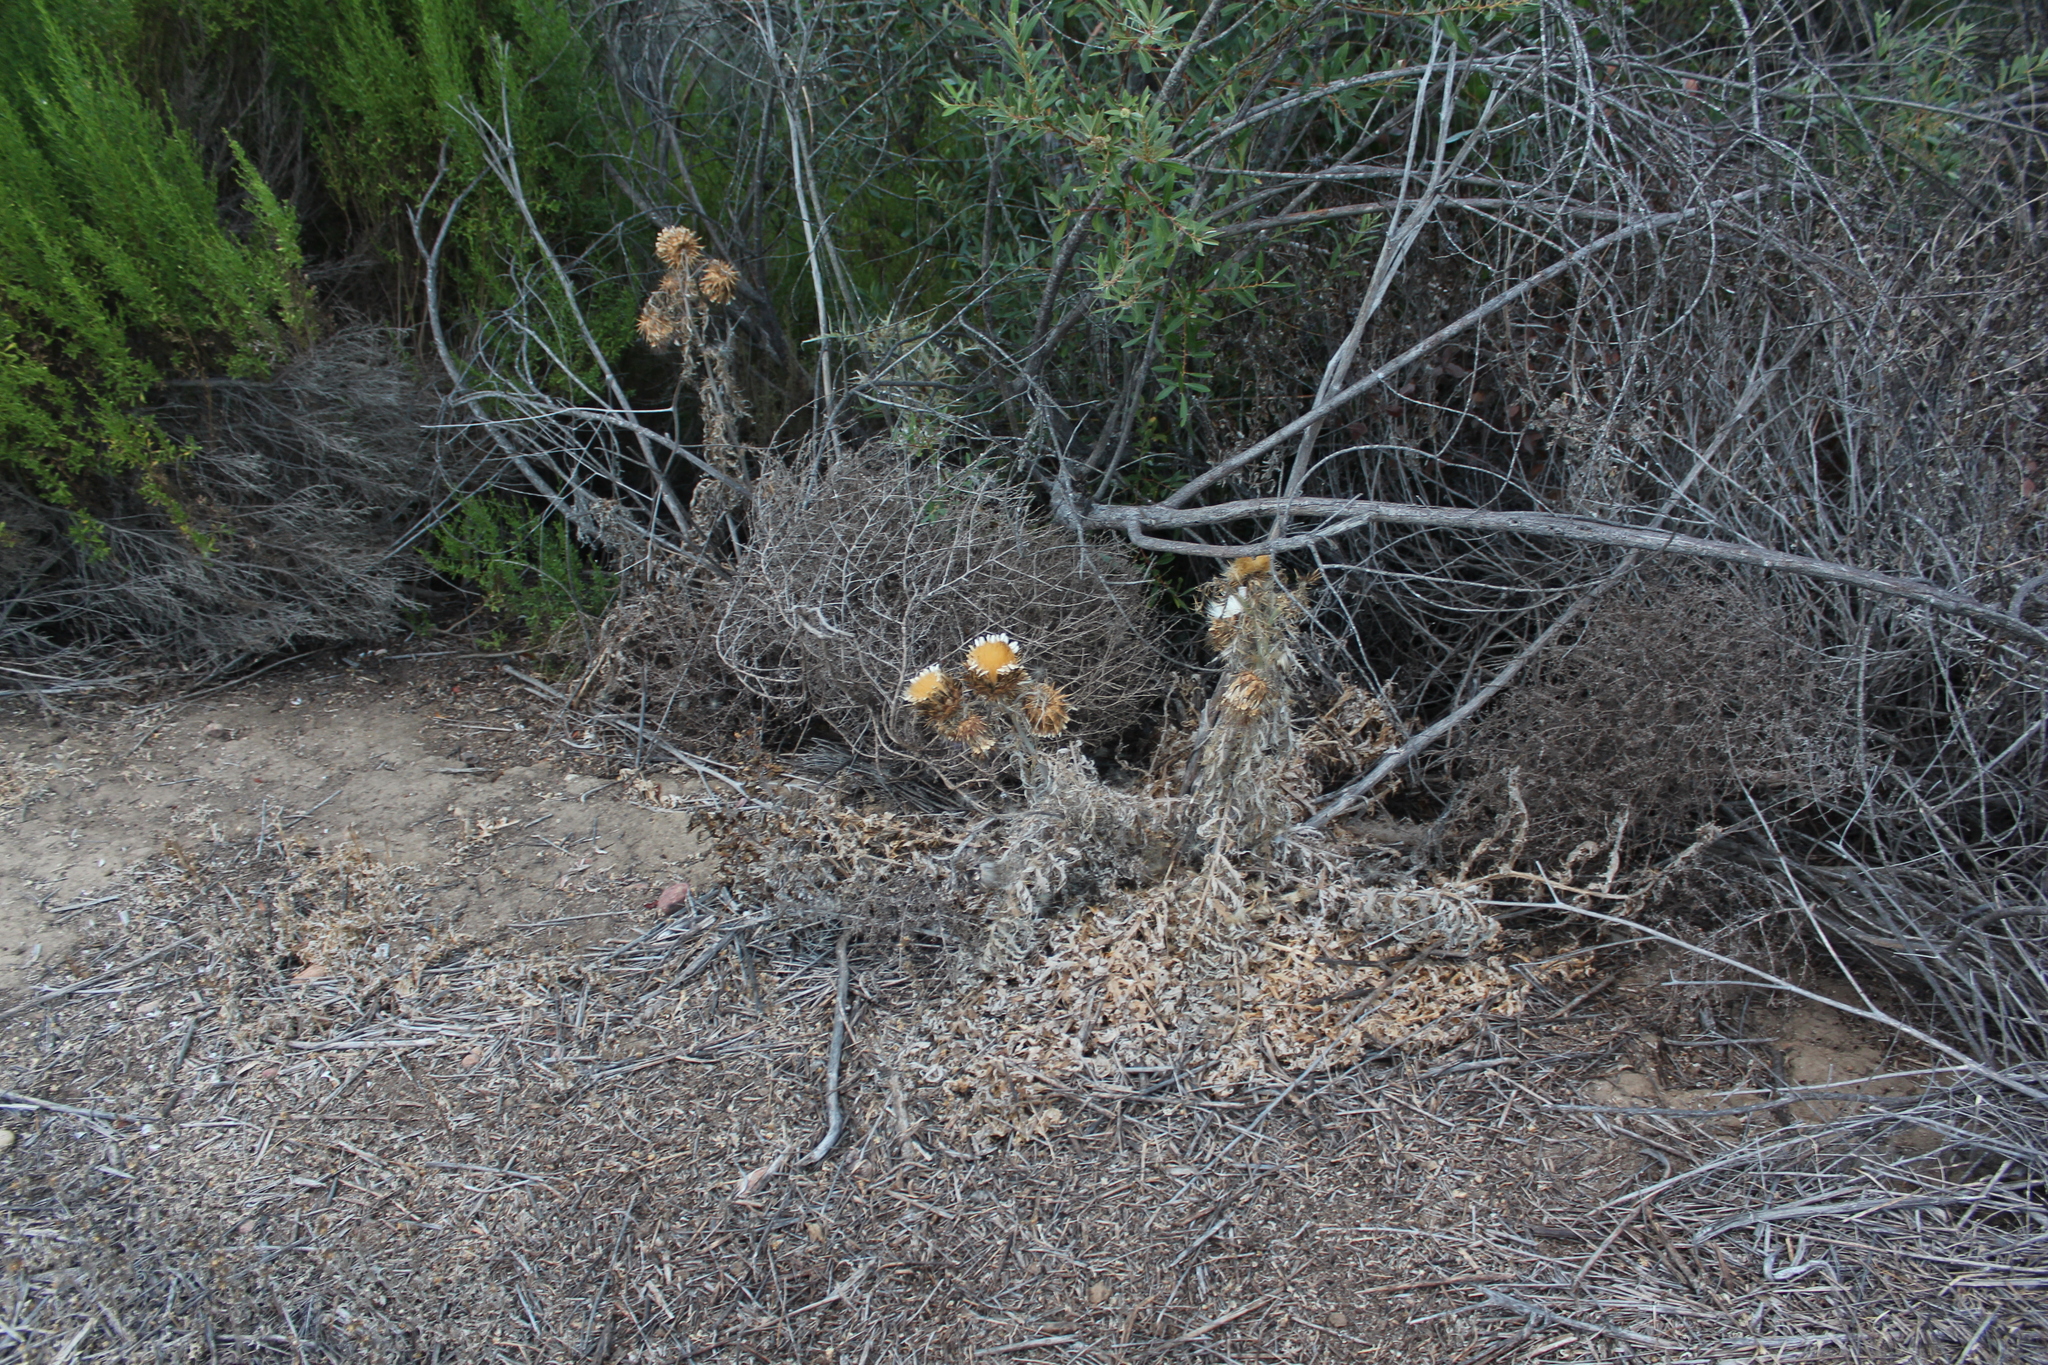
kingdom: Plantae
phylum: Tracheophyta
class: Magnoliopsida
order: Asterales
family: Asteraceae
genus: Cynara
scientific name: Cynara cardunculus
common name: Globe artichoke
